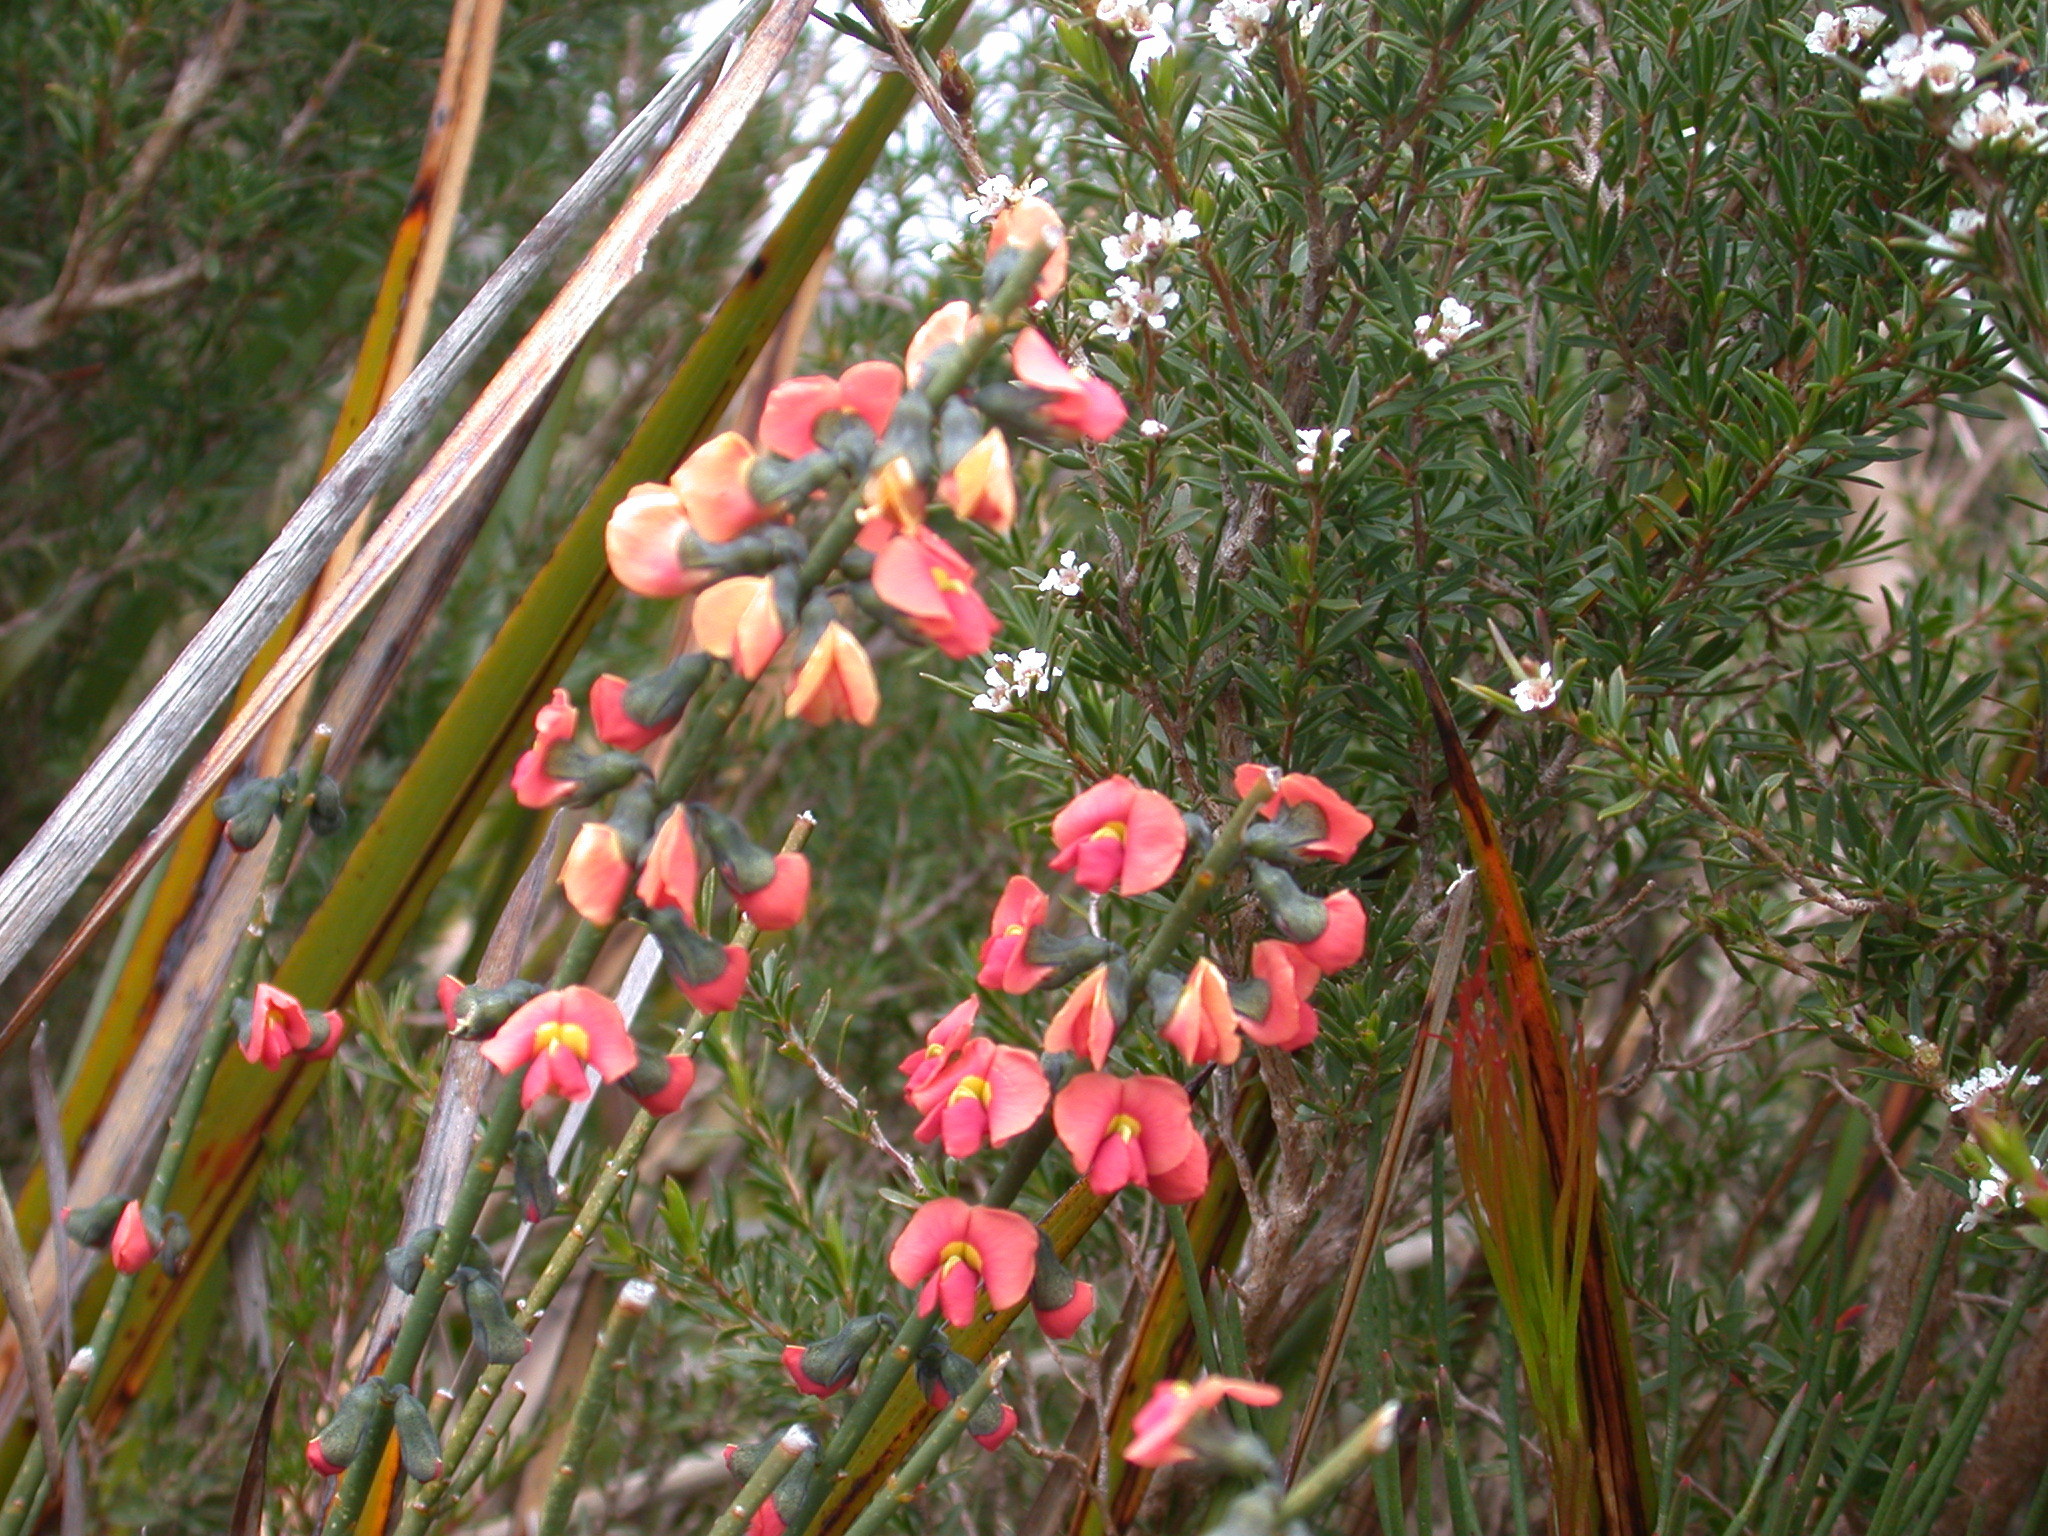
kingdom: Plantae
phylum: Tracheophyta
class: Magnoliopsida
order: Fabales
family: Fabaceae
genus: Sphaerolobium
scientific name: Sphaerolobium grandiflorum
